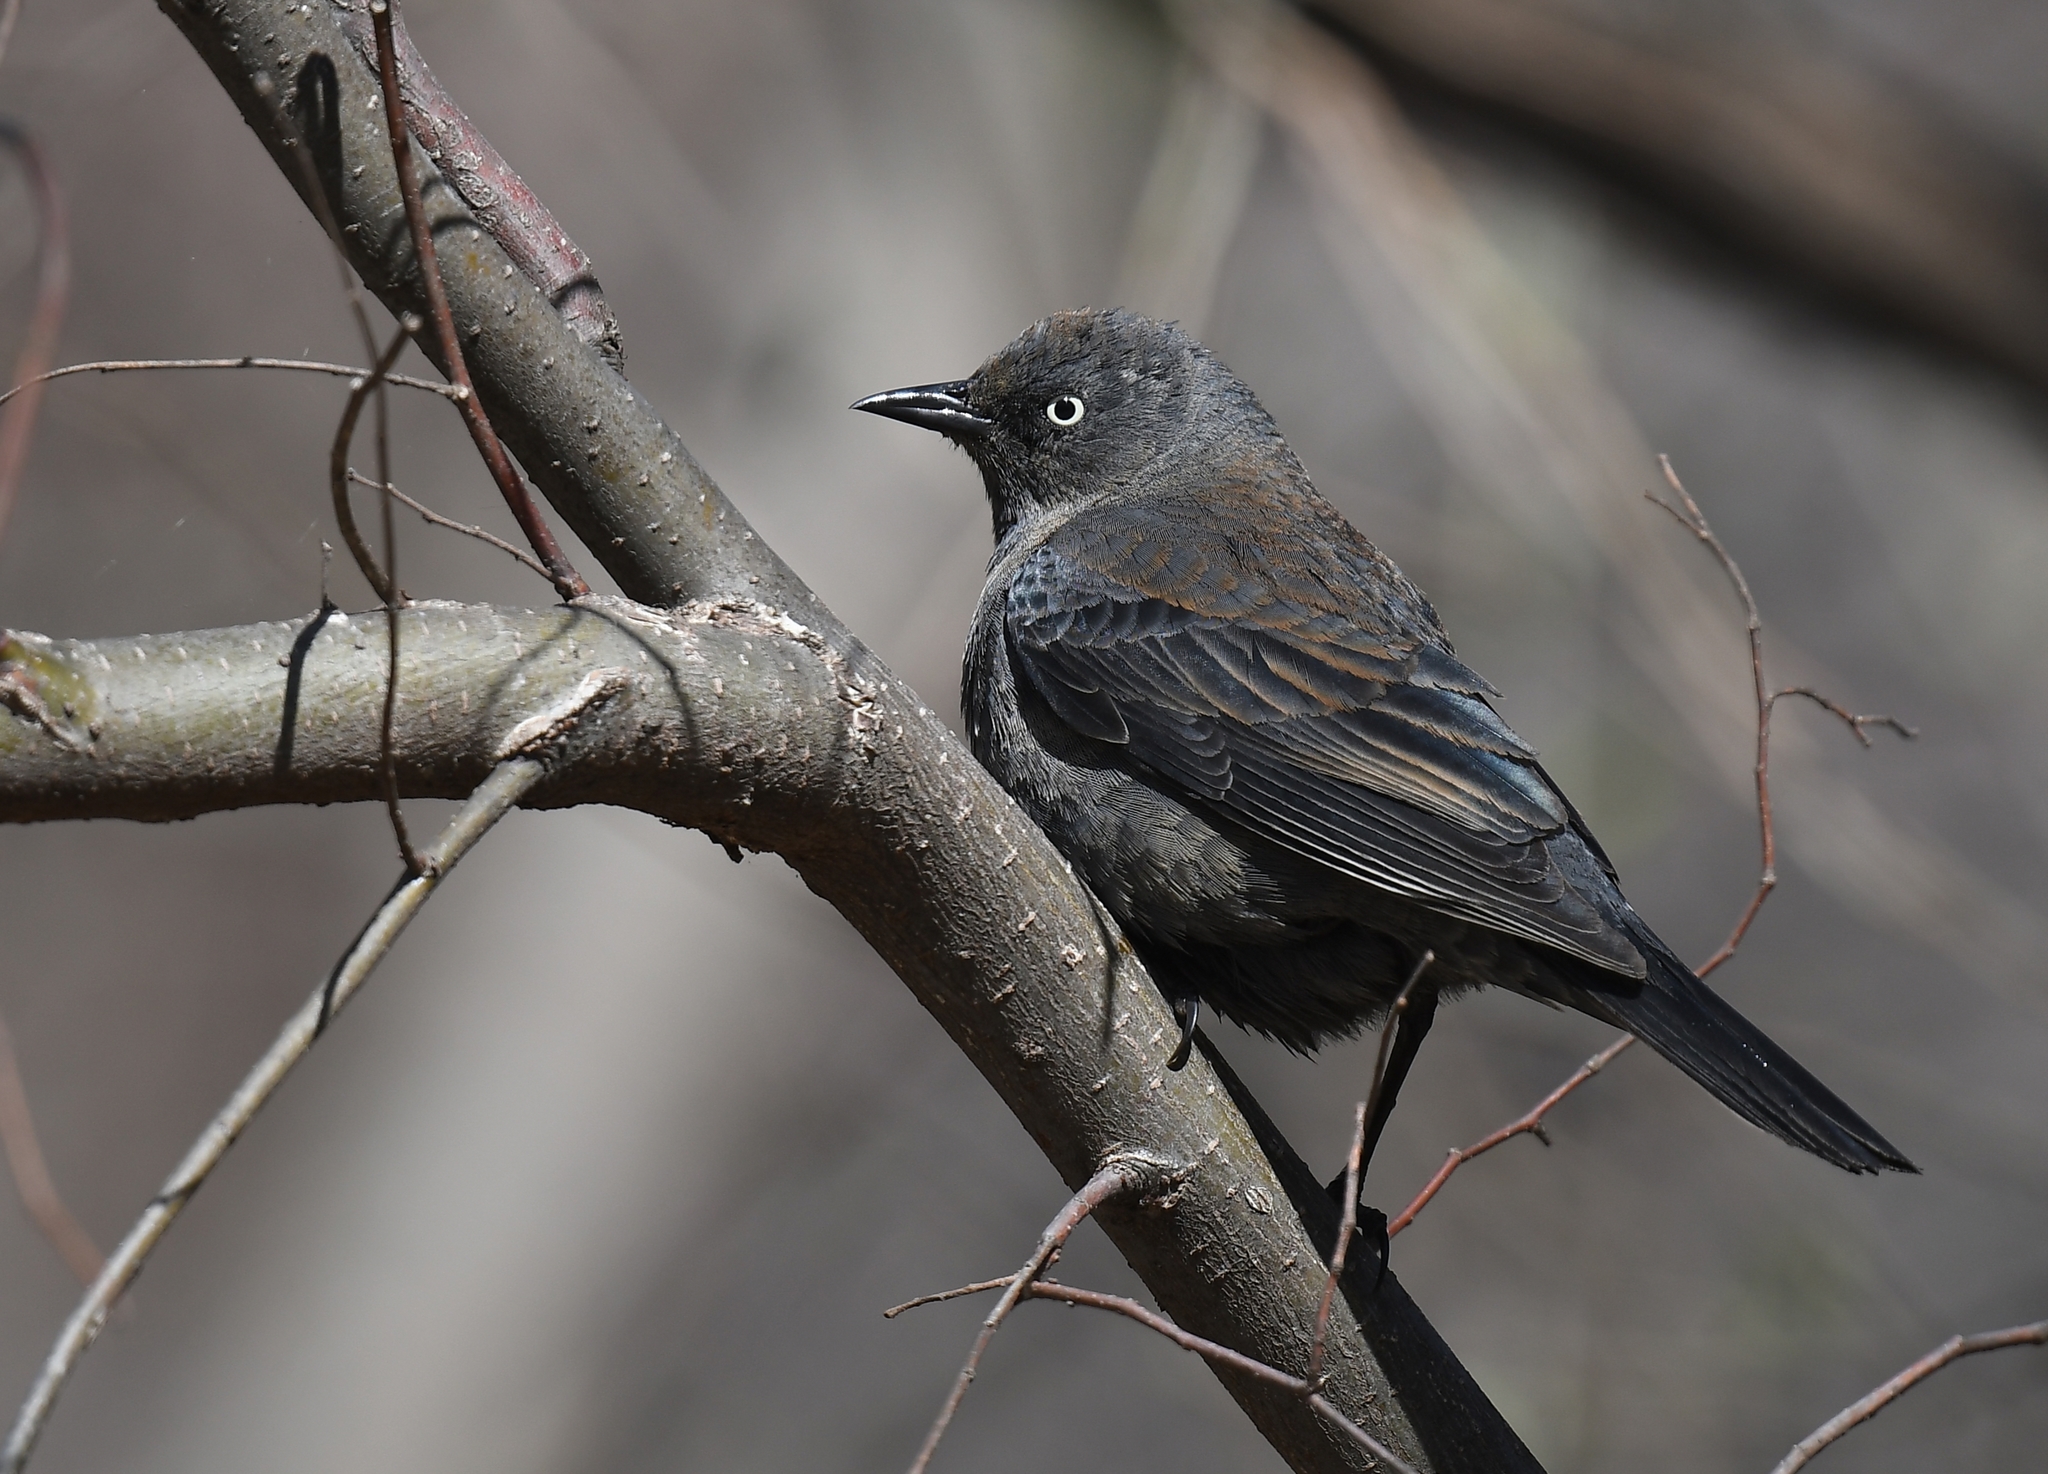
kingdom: Animalia
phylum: Chordata
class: Aves
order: Passeriformes
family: Icteridae
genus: Euphagus
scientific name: Euphagus carolinus
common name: Rusty blackbird
